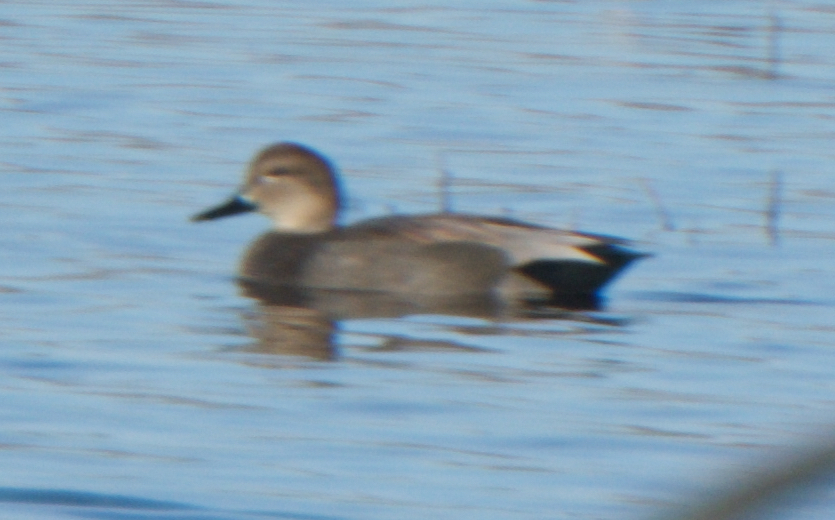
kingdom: Animalia
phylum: Chordata
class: Aves
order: Anseriformes
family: Anatidae
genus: Mareca
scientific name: Mareca strepera
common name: Gadwall
